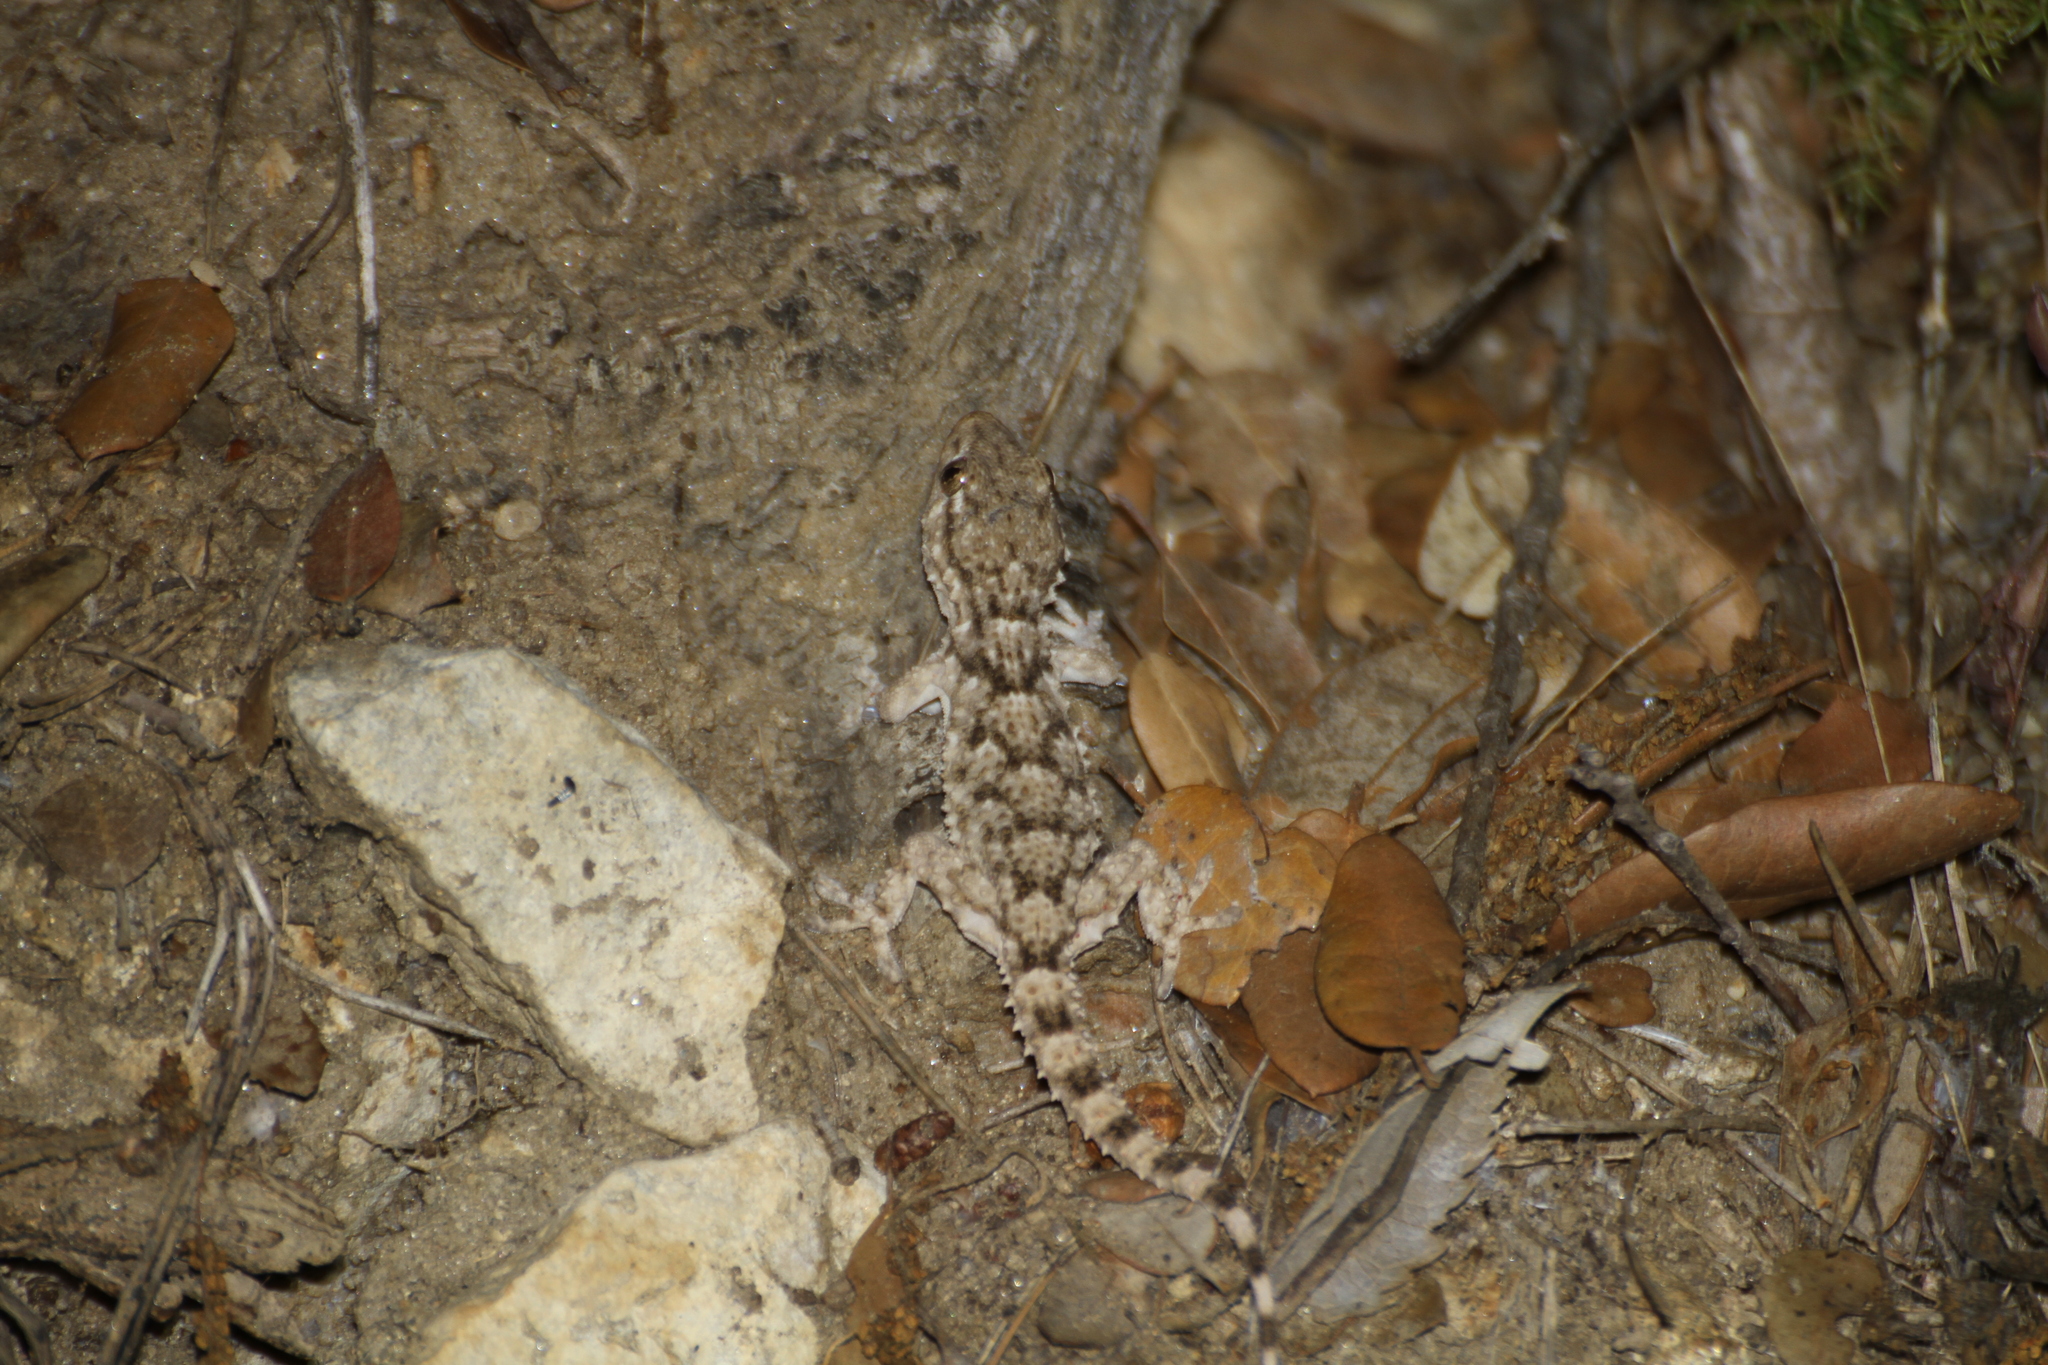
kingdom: Animalia
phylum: Chordata
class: Squamata
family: Phyllodactylidae
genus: Tarentola
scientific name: Tarentola mauritanica
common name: Moorish gecko
